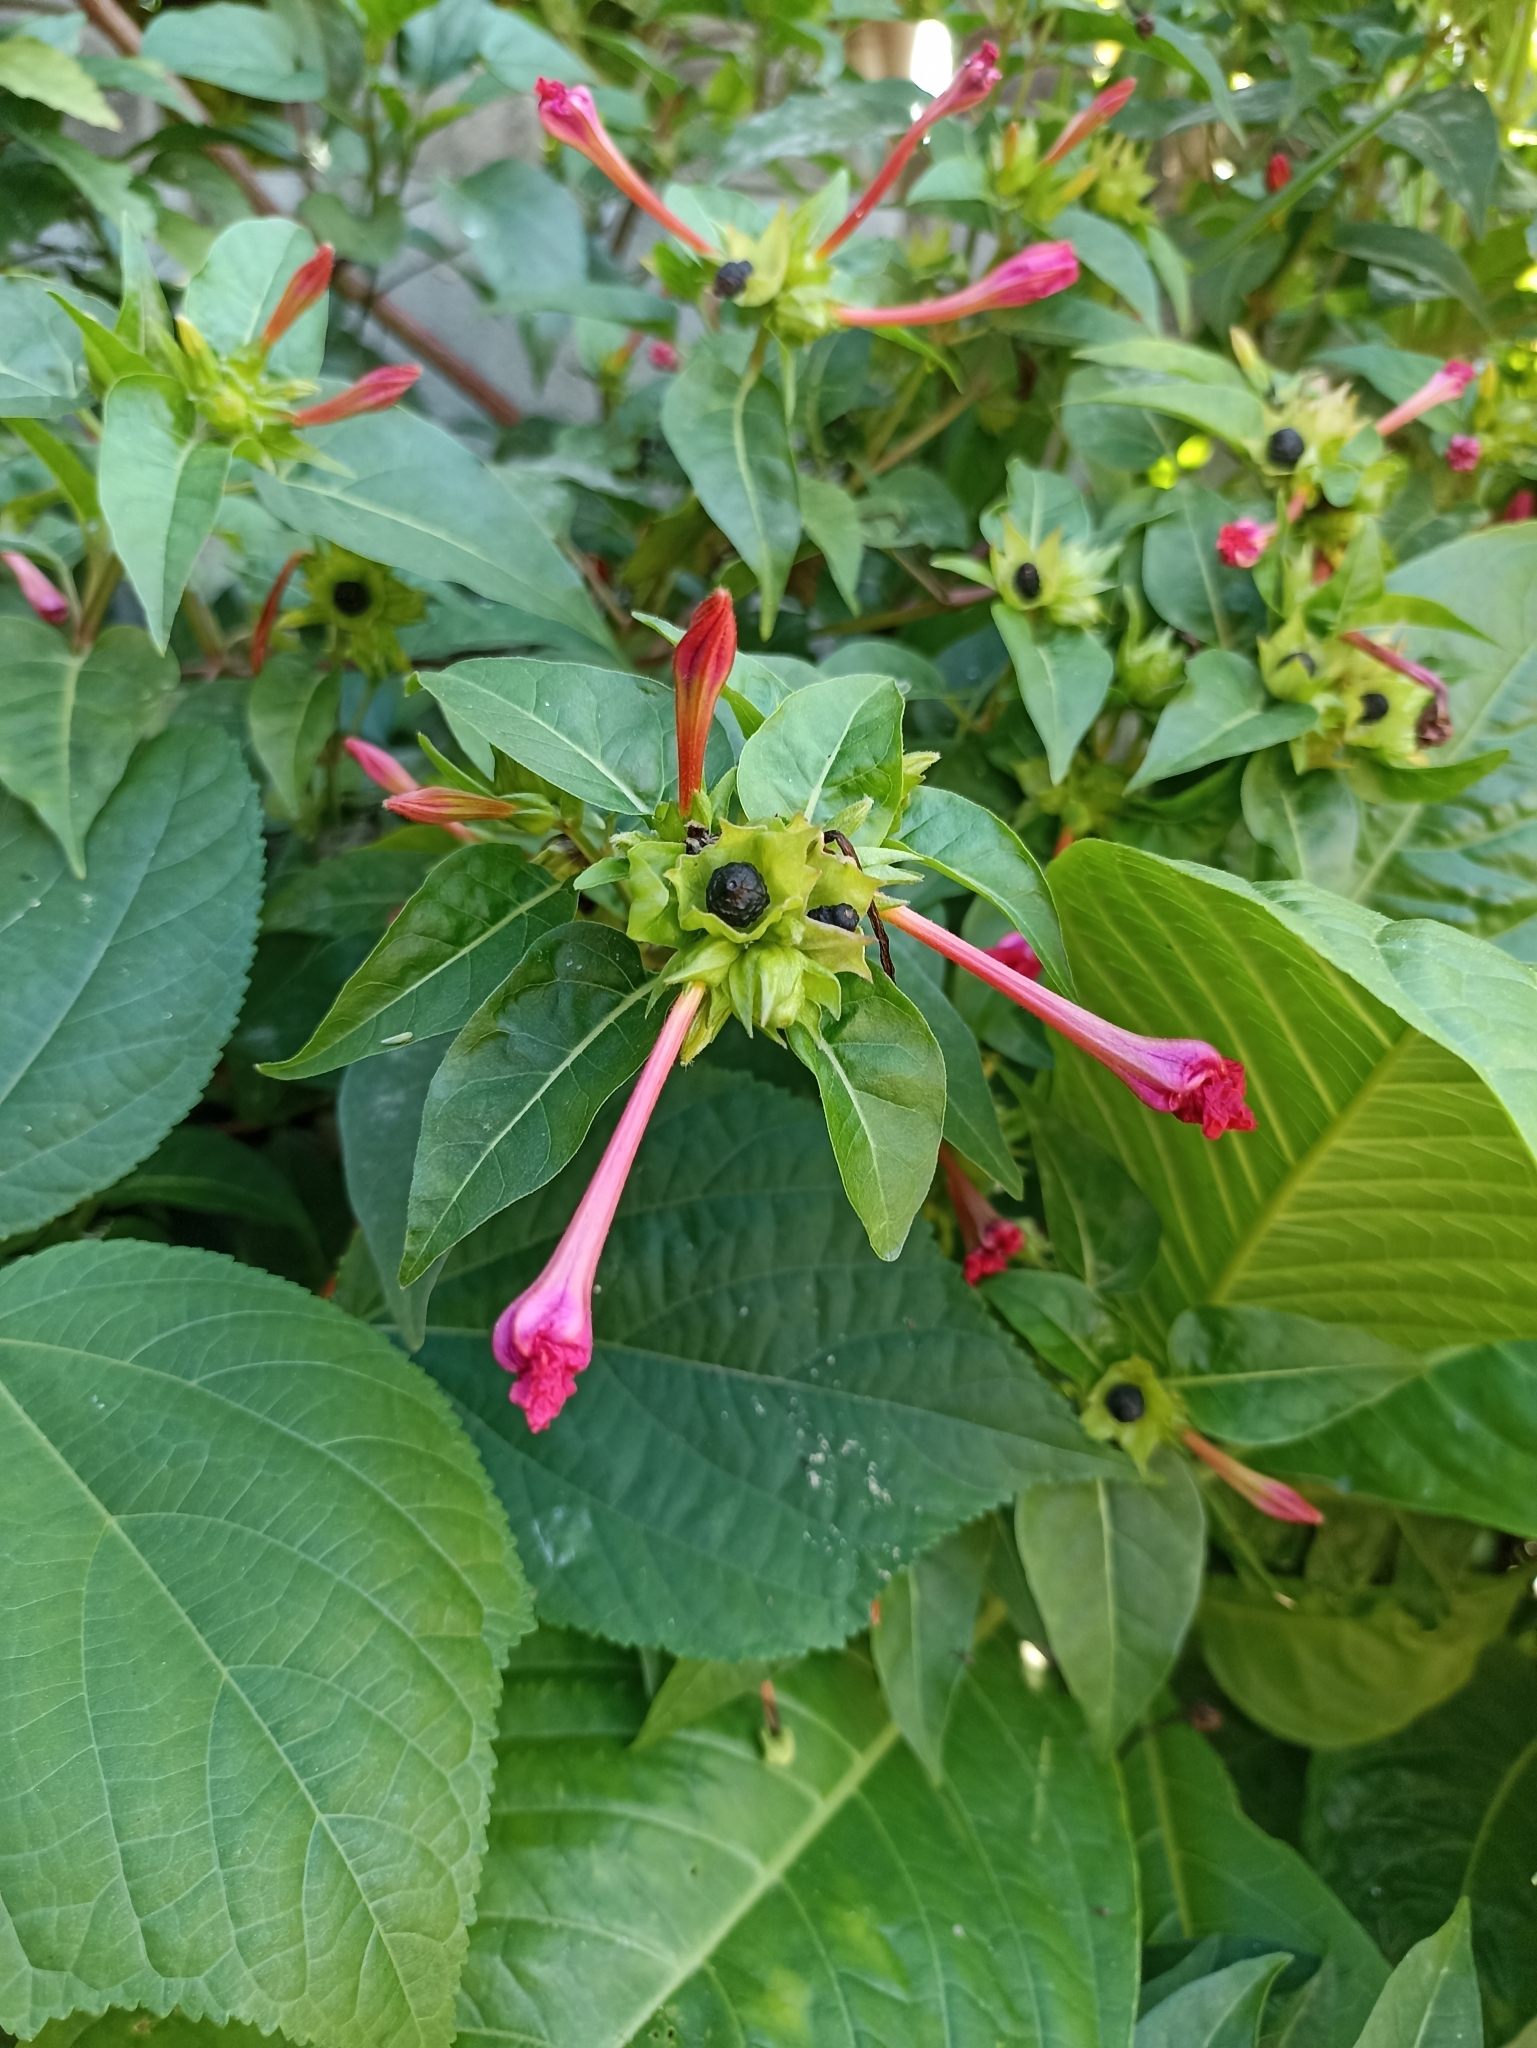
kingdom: Plantae
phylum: Tracheophyta
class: Magnoliopsida
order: Caryophyllales
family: Nyctaginaceae
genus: Mirabilis
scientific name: Mirabilis jalapa
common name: Marvel-of-peru
